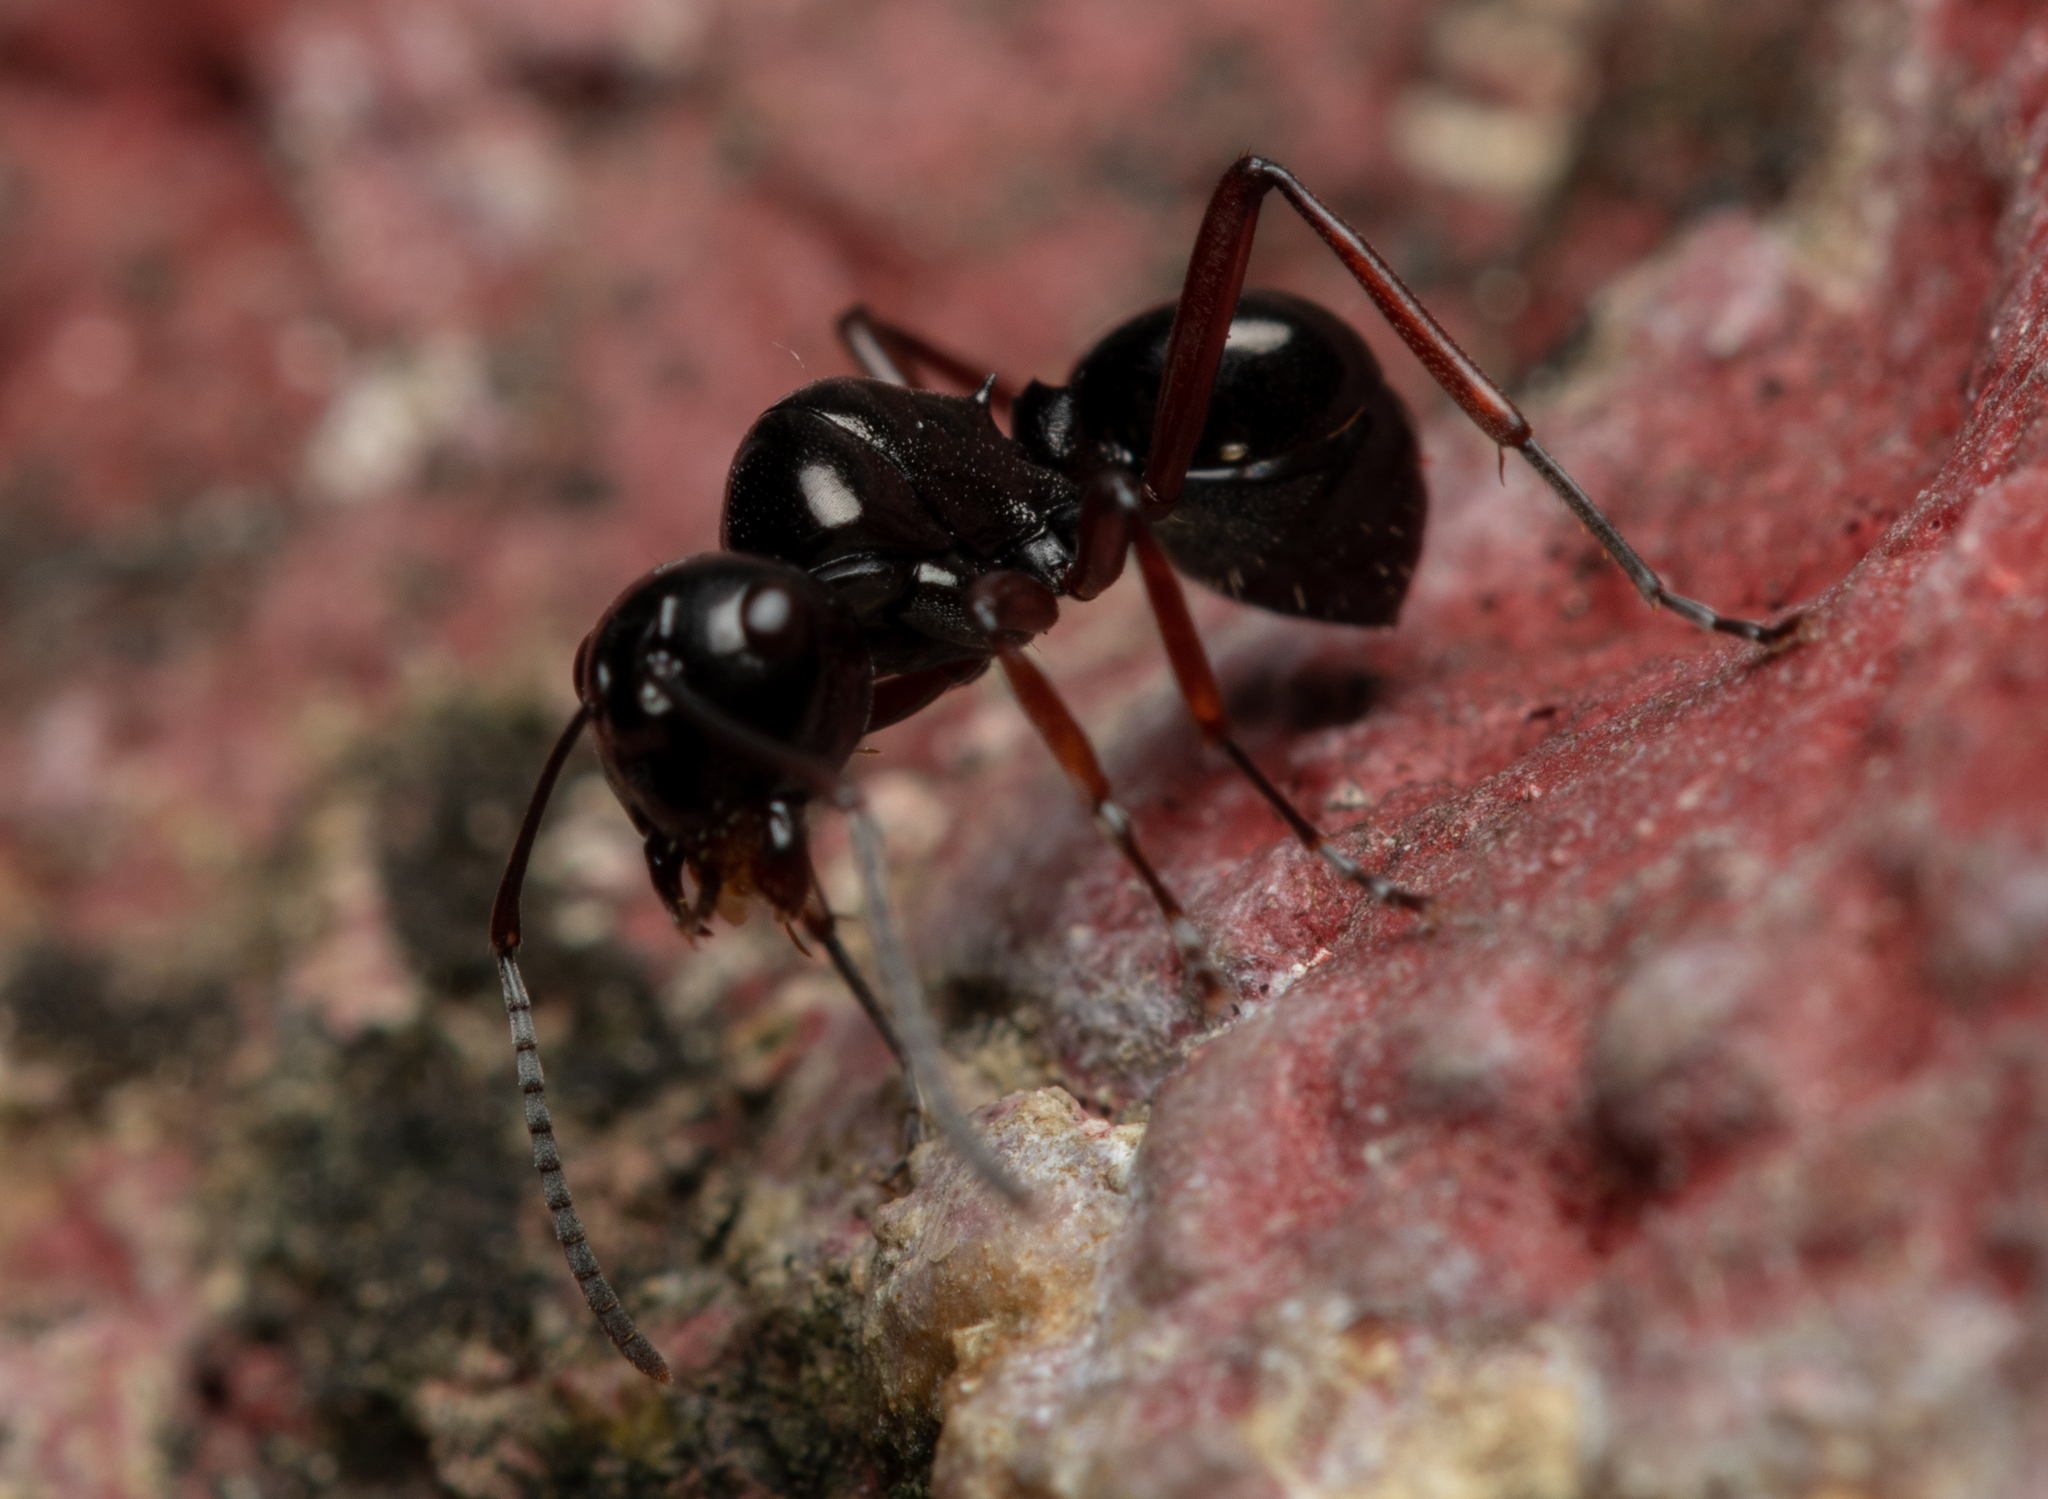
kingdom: Animalia
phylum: Arthropoda
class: Insecta
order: Hymenoptera
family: Formicidae
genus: Polyrhachis
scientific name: Polyrhachis australis
